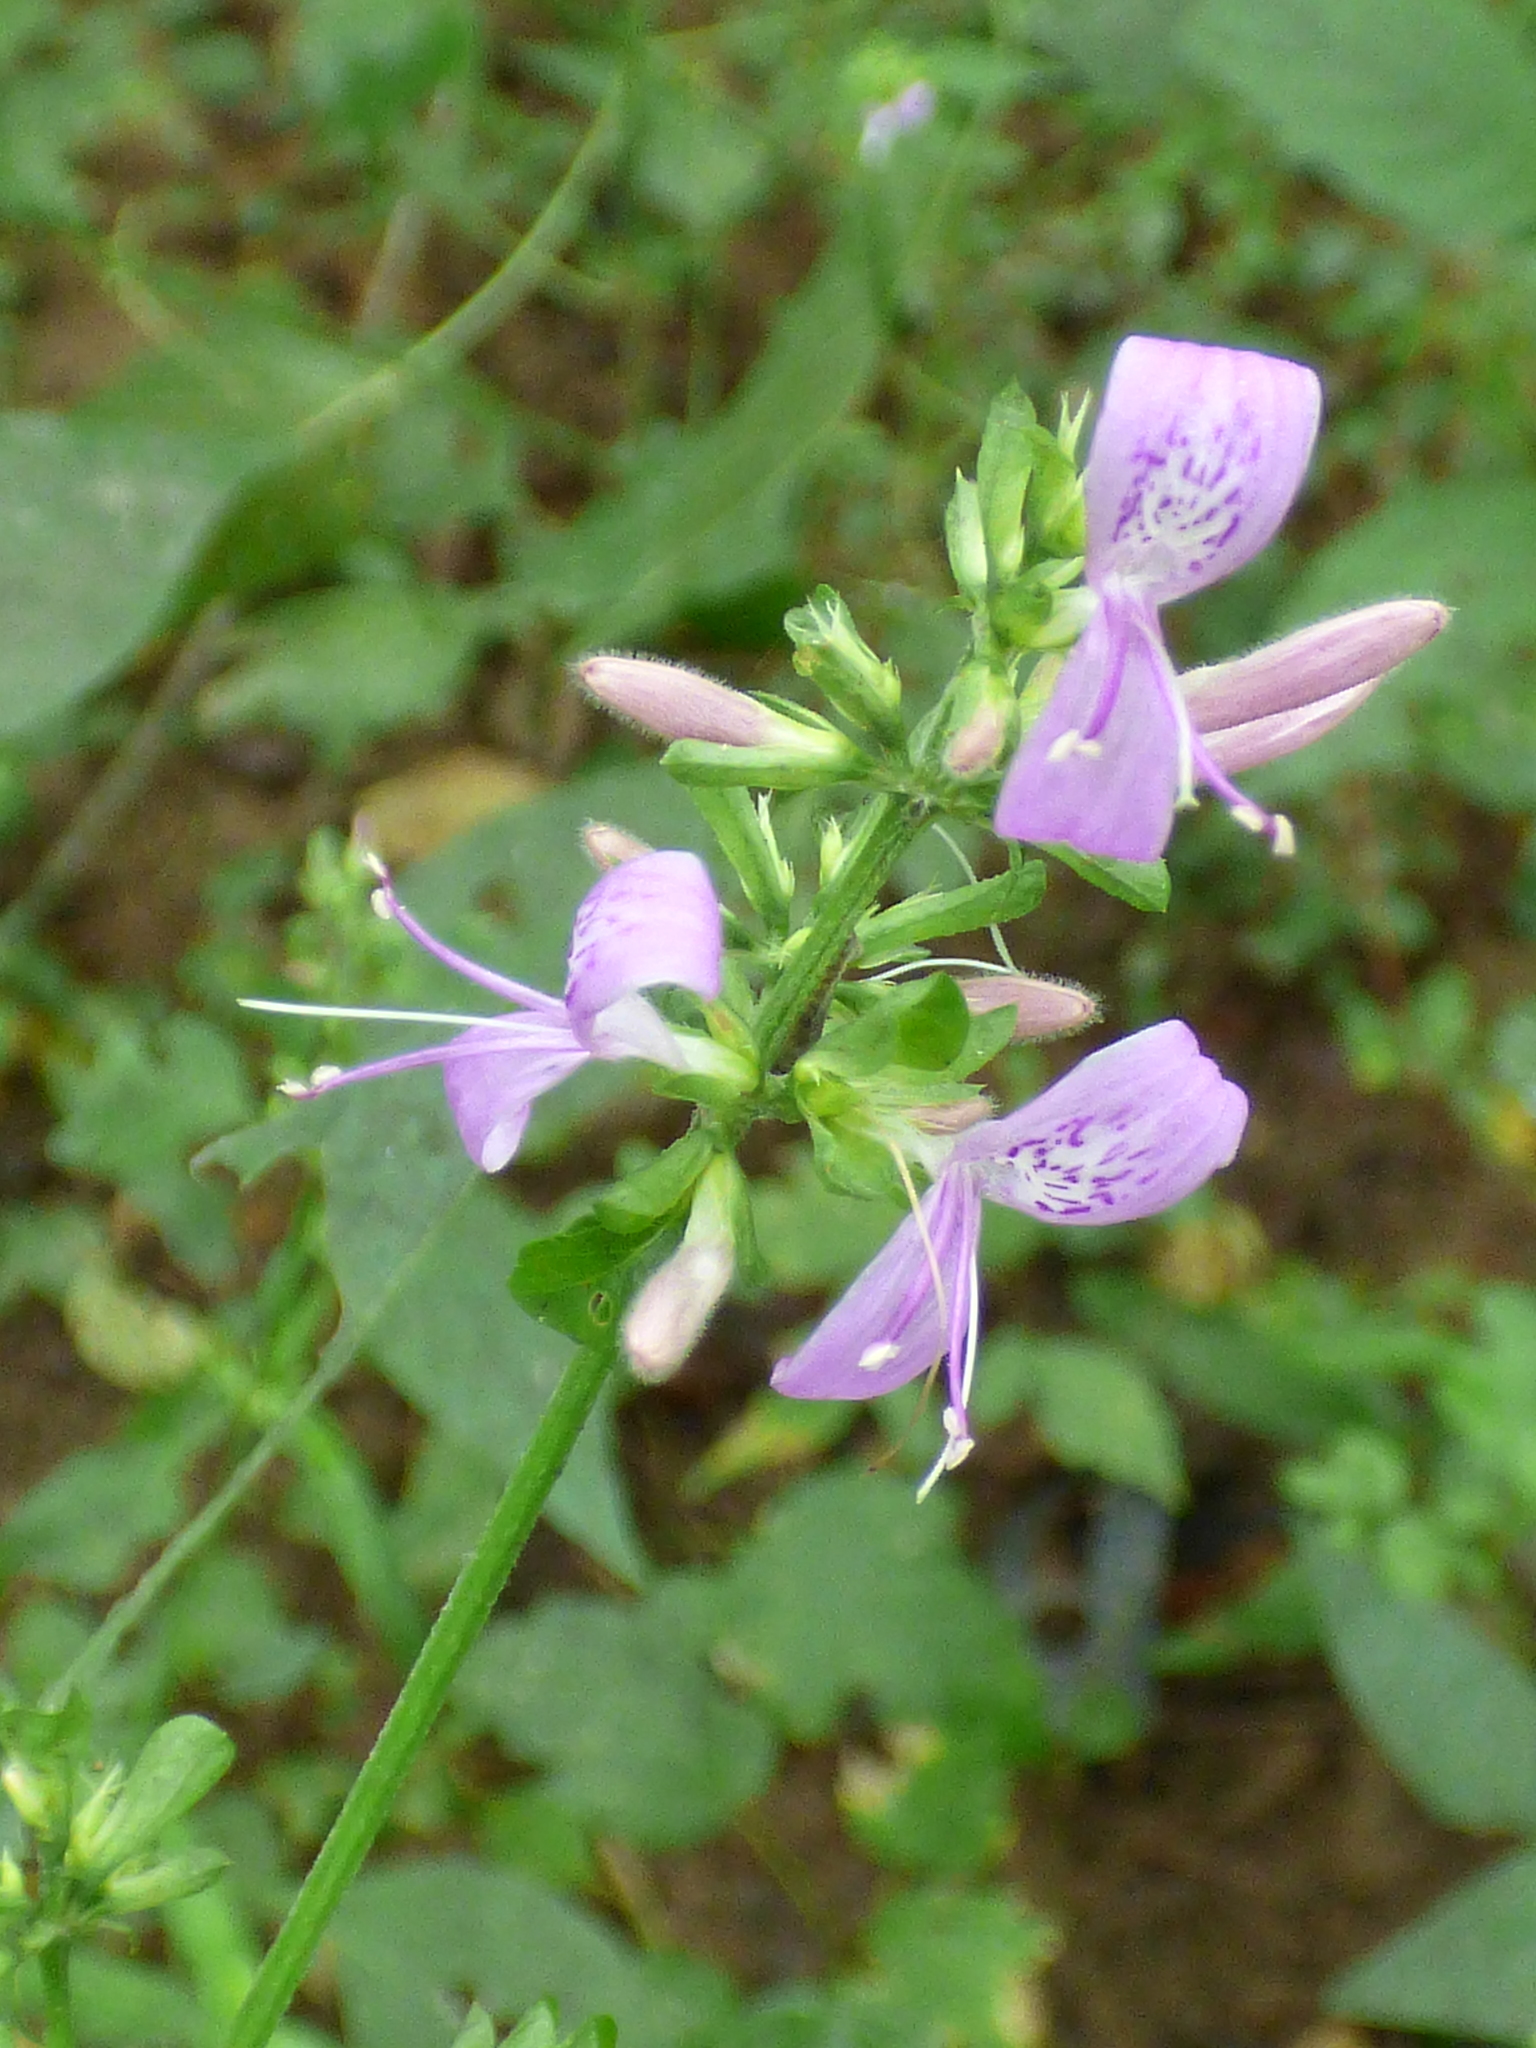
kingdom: Plantae
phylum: Tracheophyta
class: Magnoliopsida
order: Lamiales
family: Acanthaceae
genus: Dicliptera
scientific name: Dicliptera brachiata
